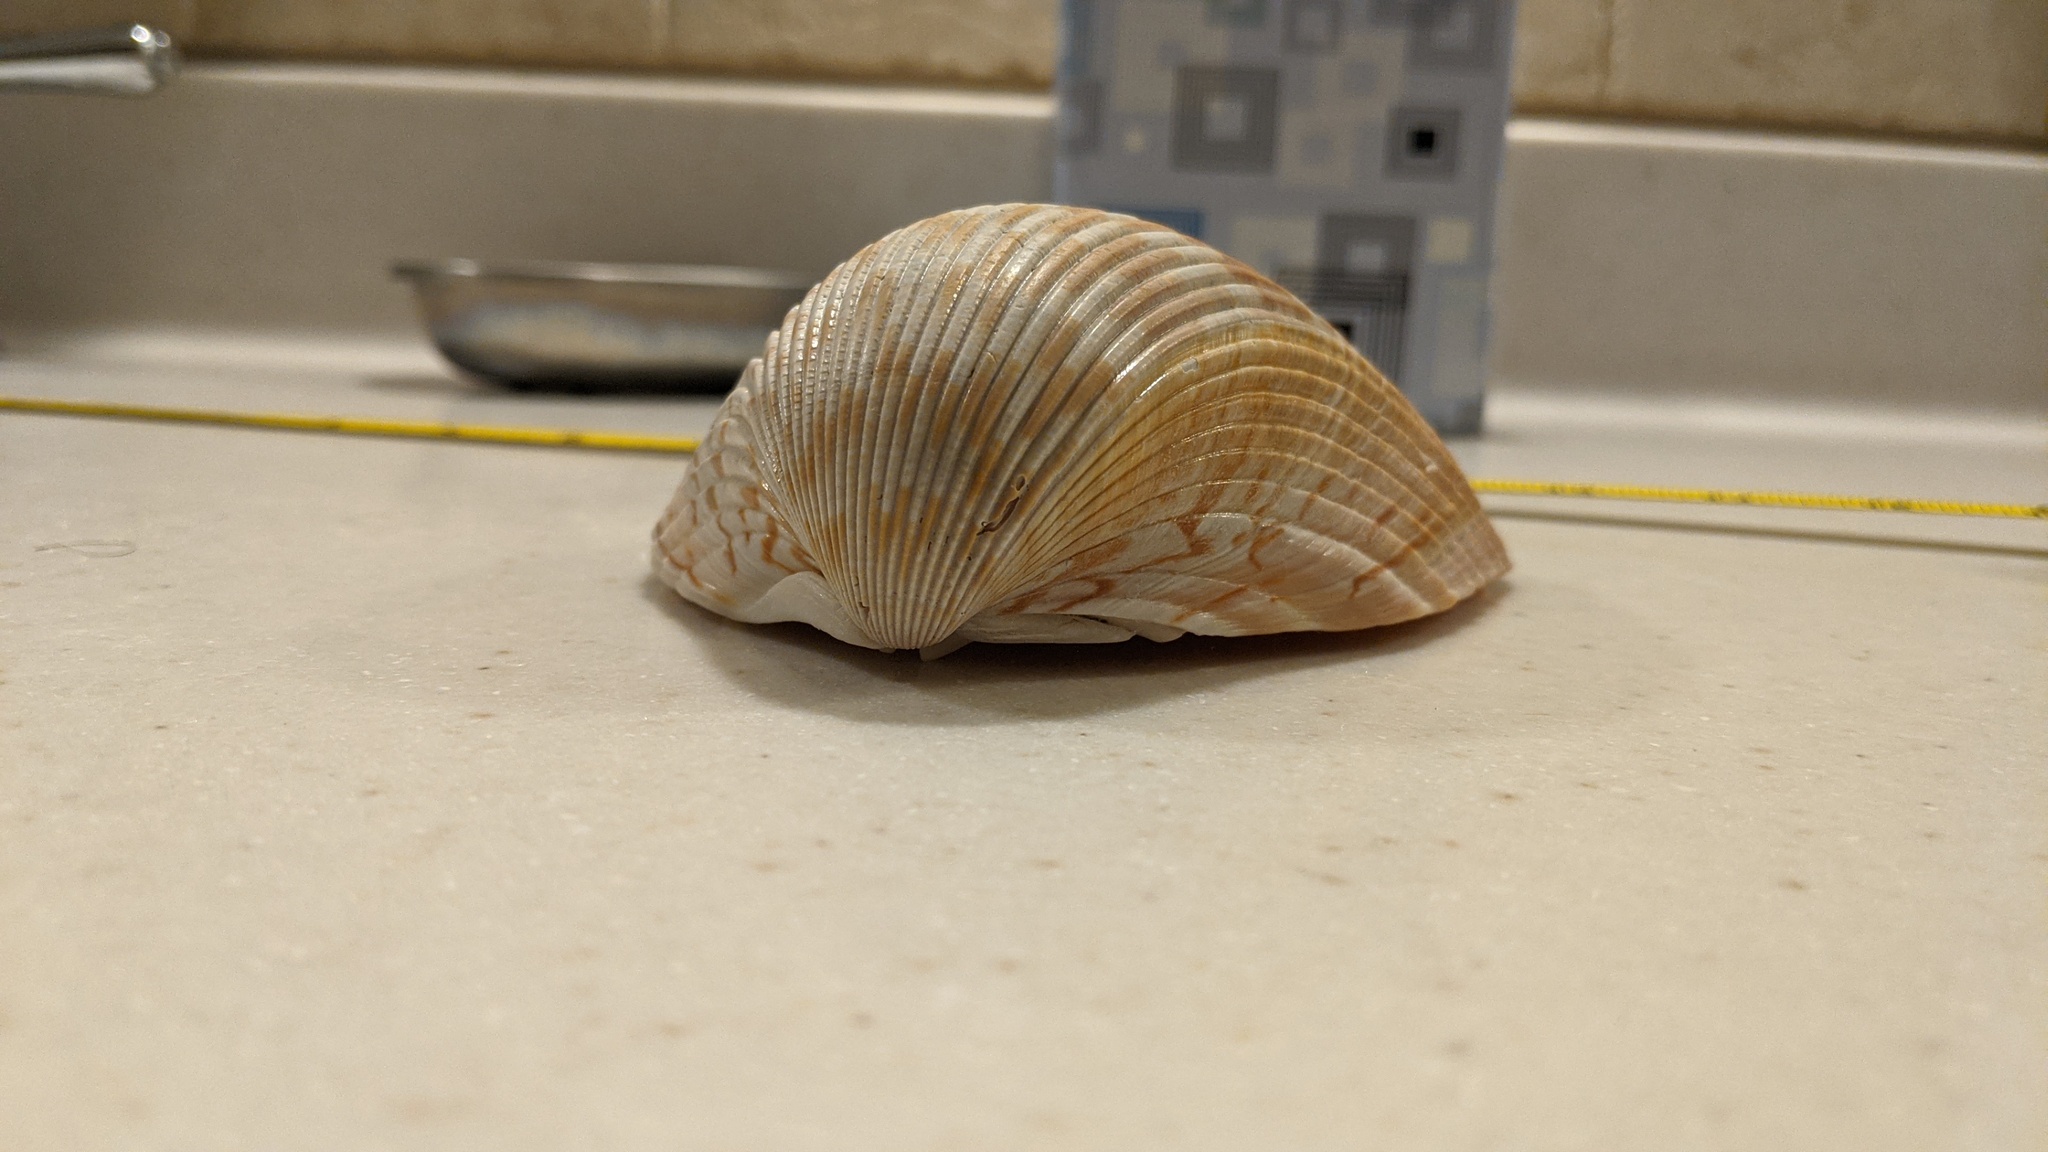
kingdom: Animalia
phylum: Mollusca
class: Bivalvia
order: Cardiida
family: Cardiidae
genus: Dinocardium
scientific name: Dinocardium robustum
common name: Atlantic giant cockle
